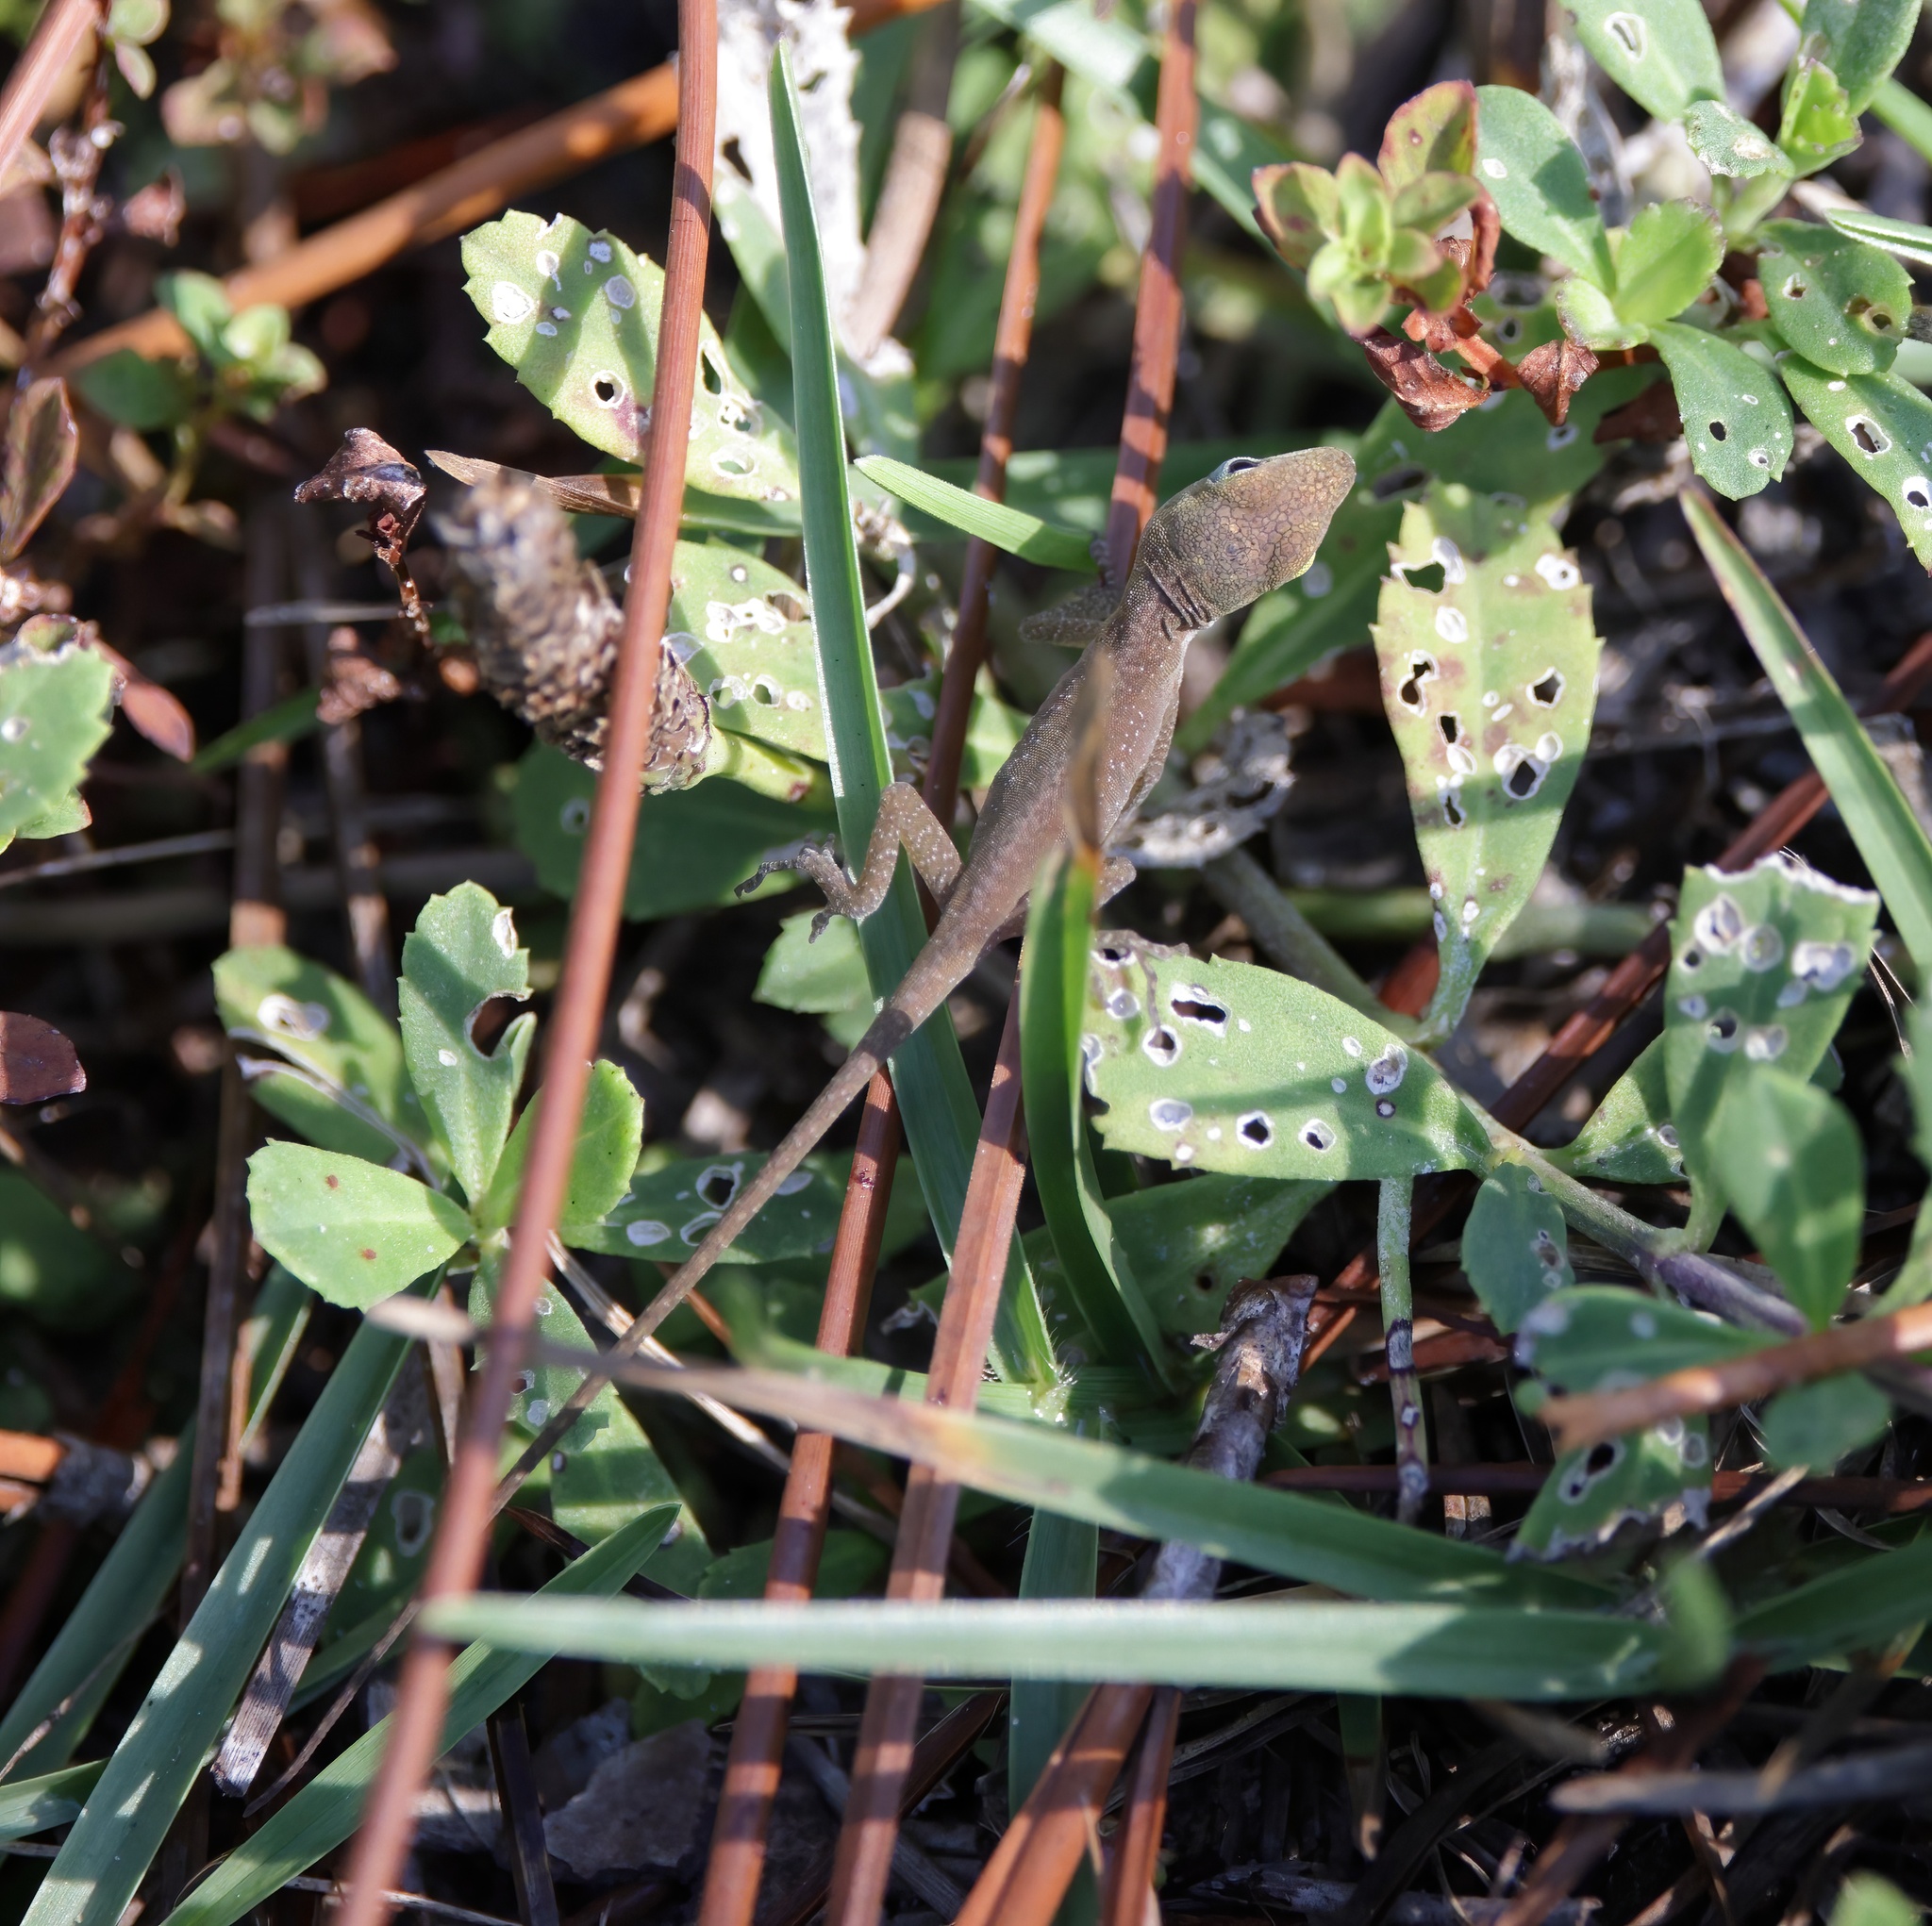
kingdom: Animalia
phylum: Chordata
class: Squamata
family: Dactyloidae
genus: Anolis
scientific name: Anolis carolinensis
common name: Green anole
